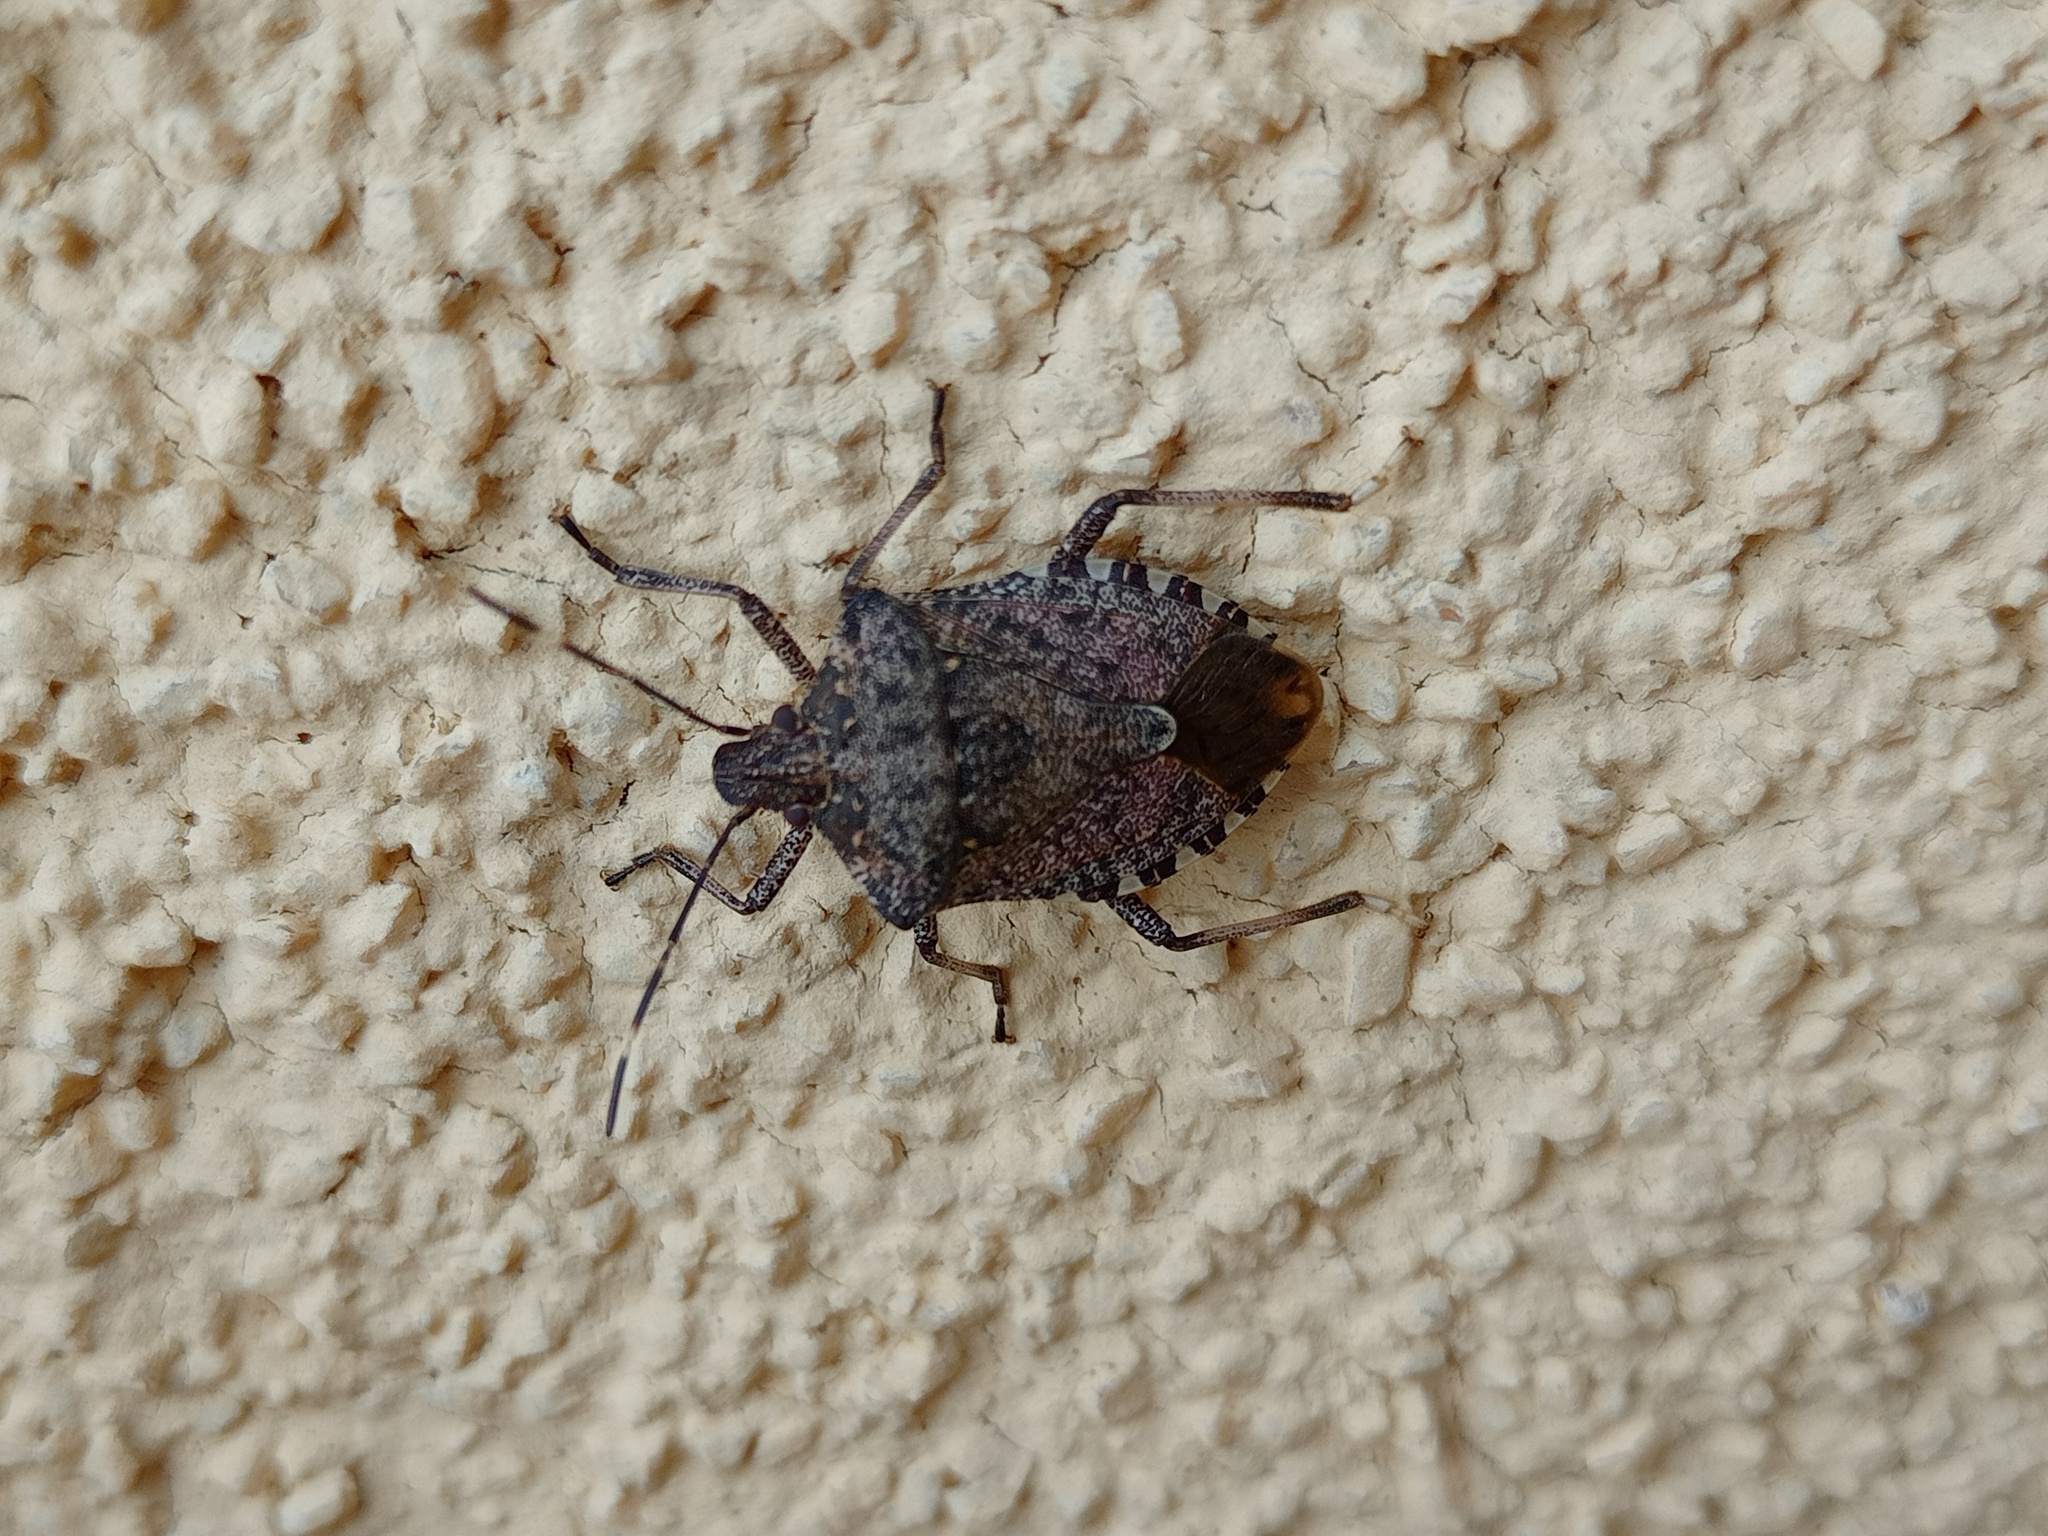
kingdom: Animalia
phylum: Arthropoda
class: Insecta
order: Hemiptera
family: Pentatomidae
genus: Halyomorpha
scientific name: Halyomorpha halys
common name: Brown marmorated stink bug
